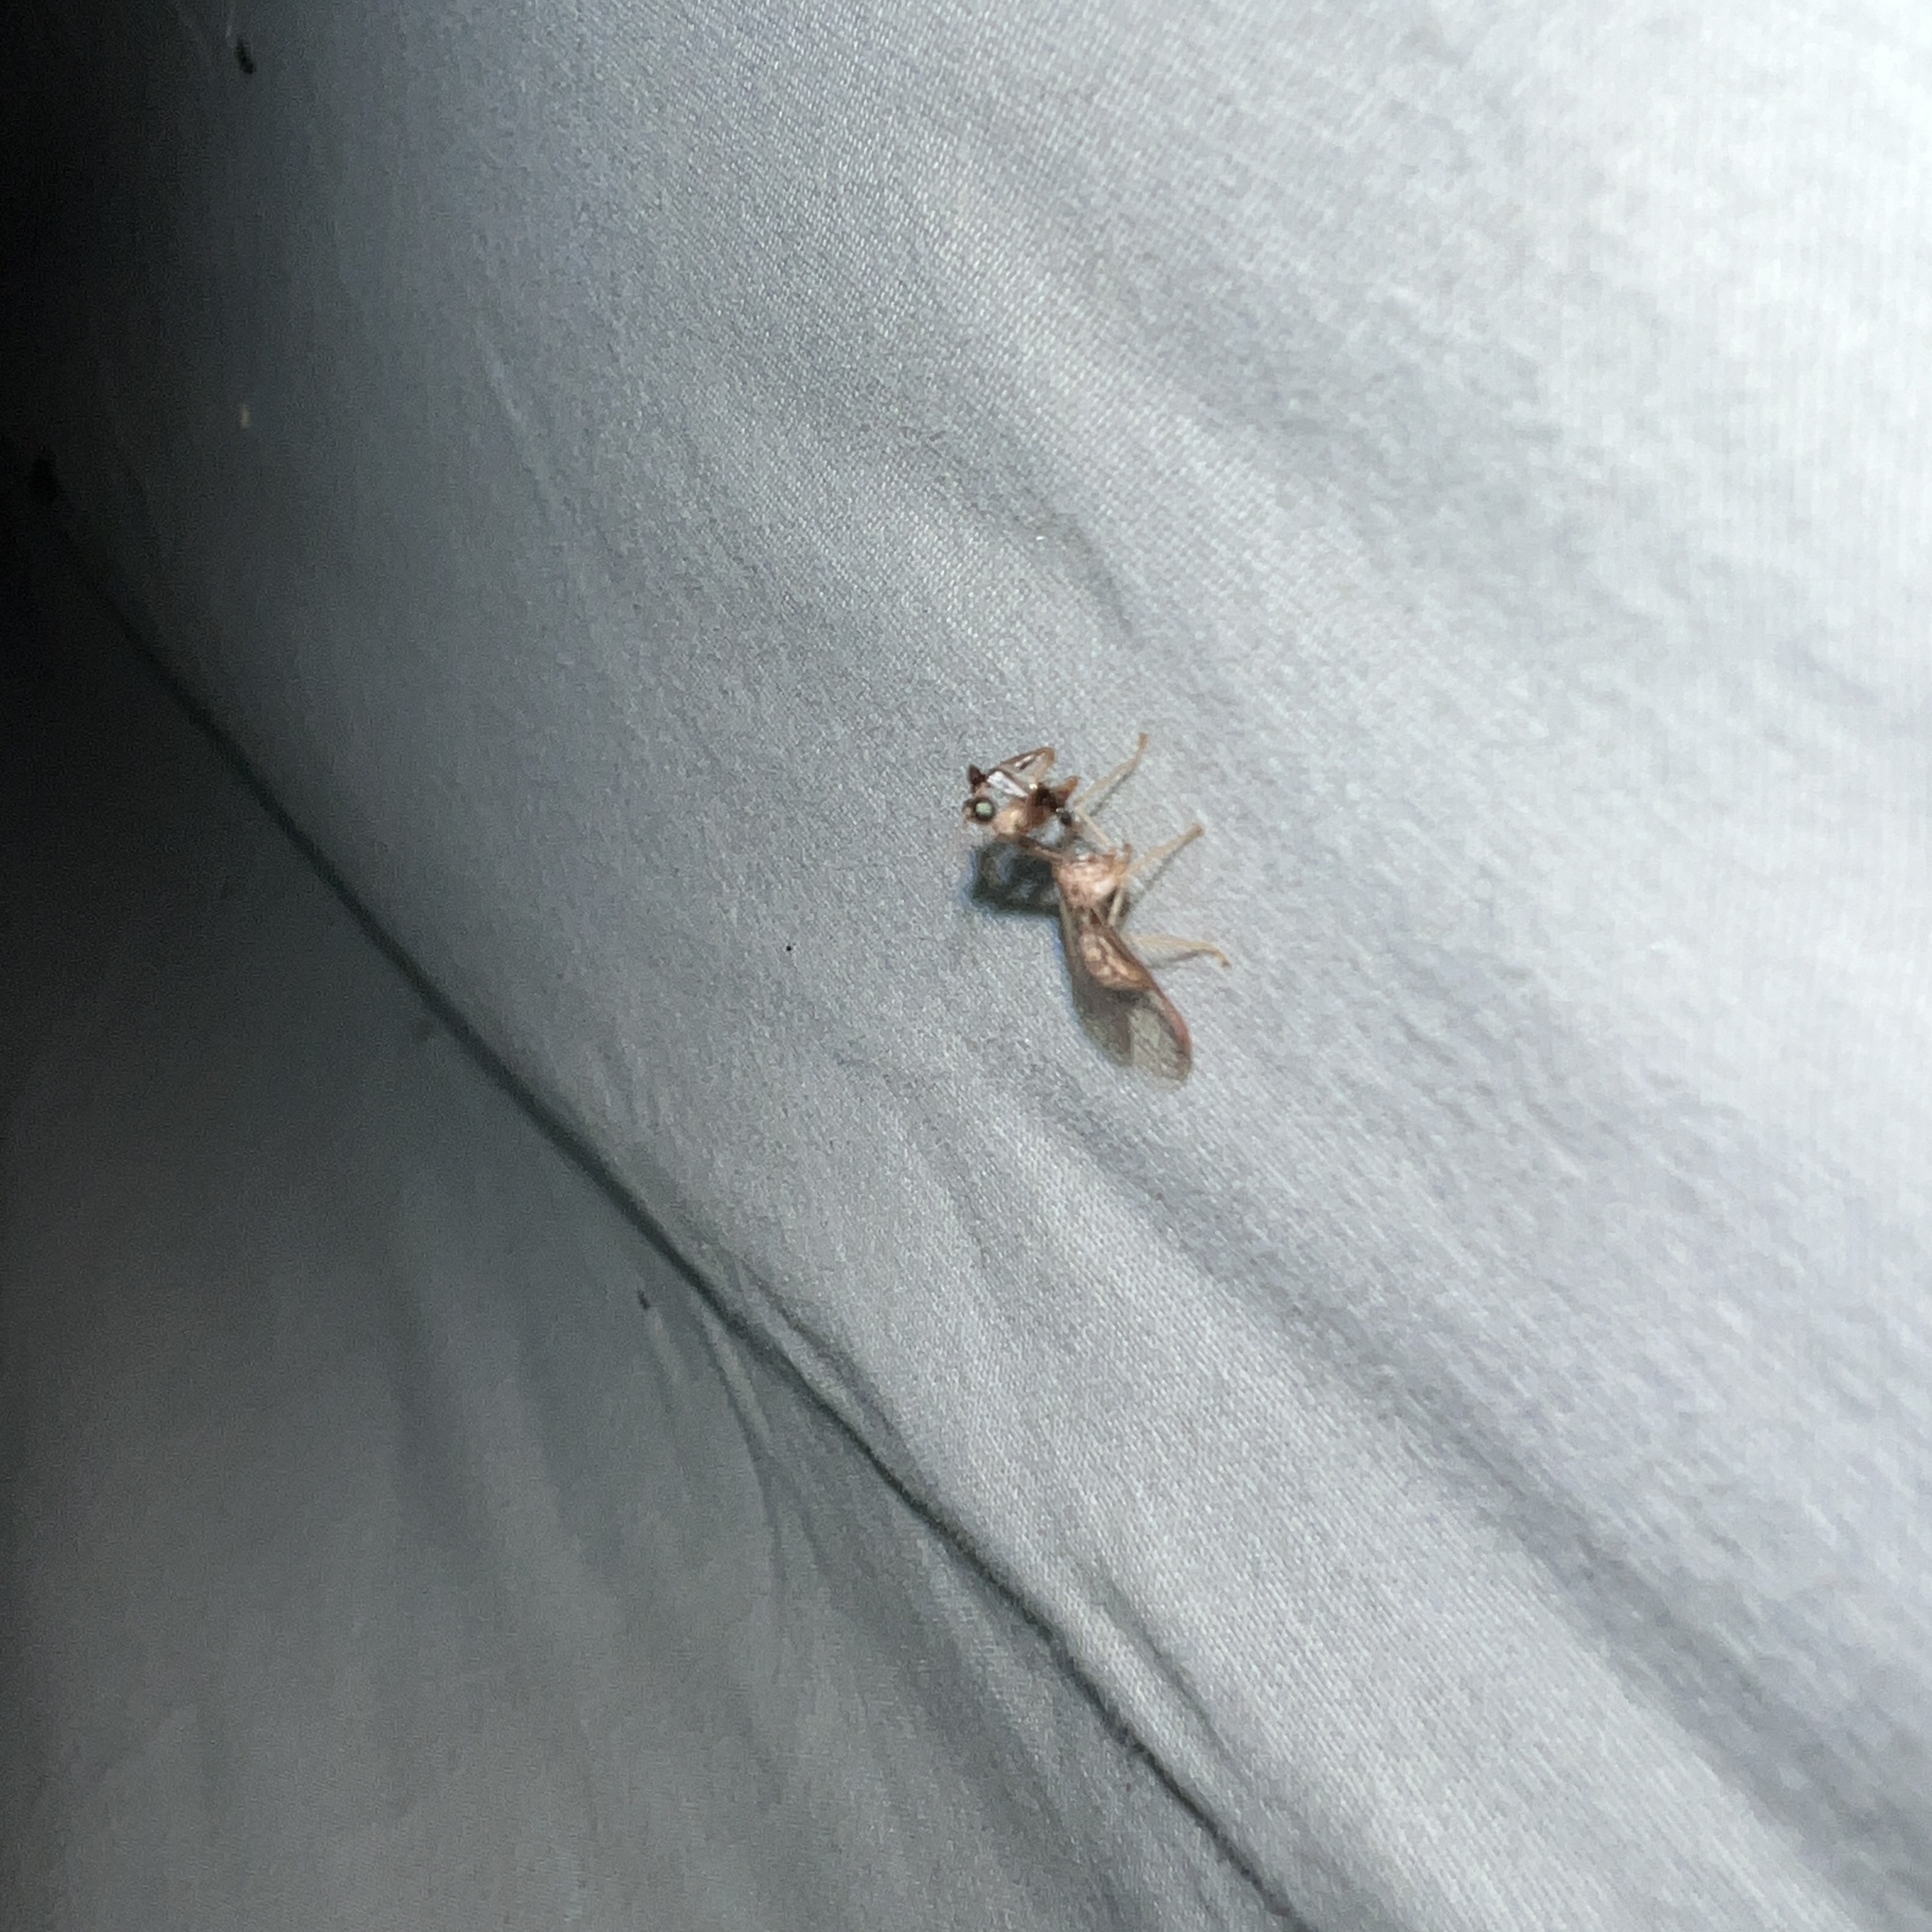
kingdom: Animalia
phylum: Arthropoda
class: Insecta
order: Neuroptera
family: Mantispidae
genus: Dicromantispa
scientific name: Dicromantispa sayi
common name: Say's mantidfly
